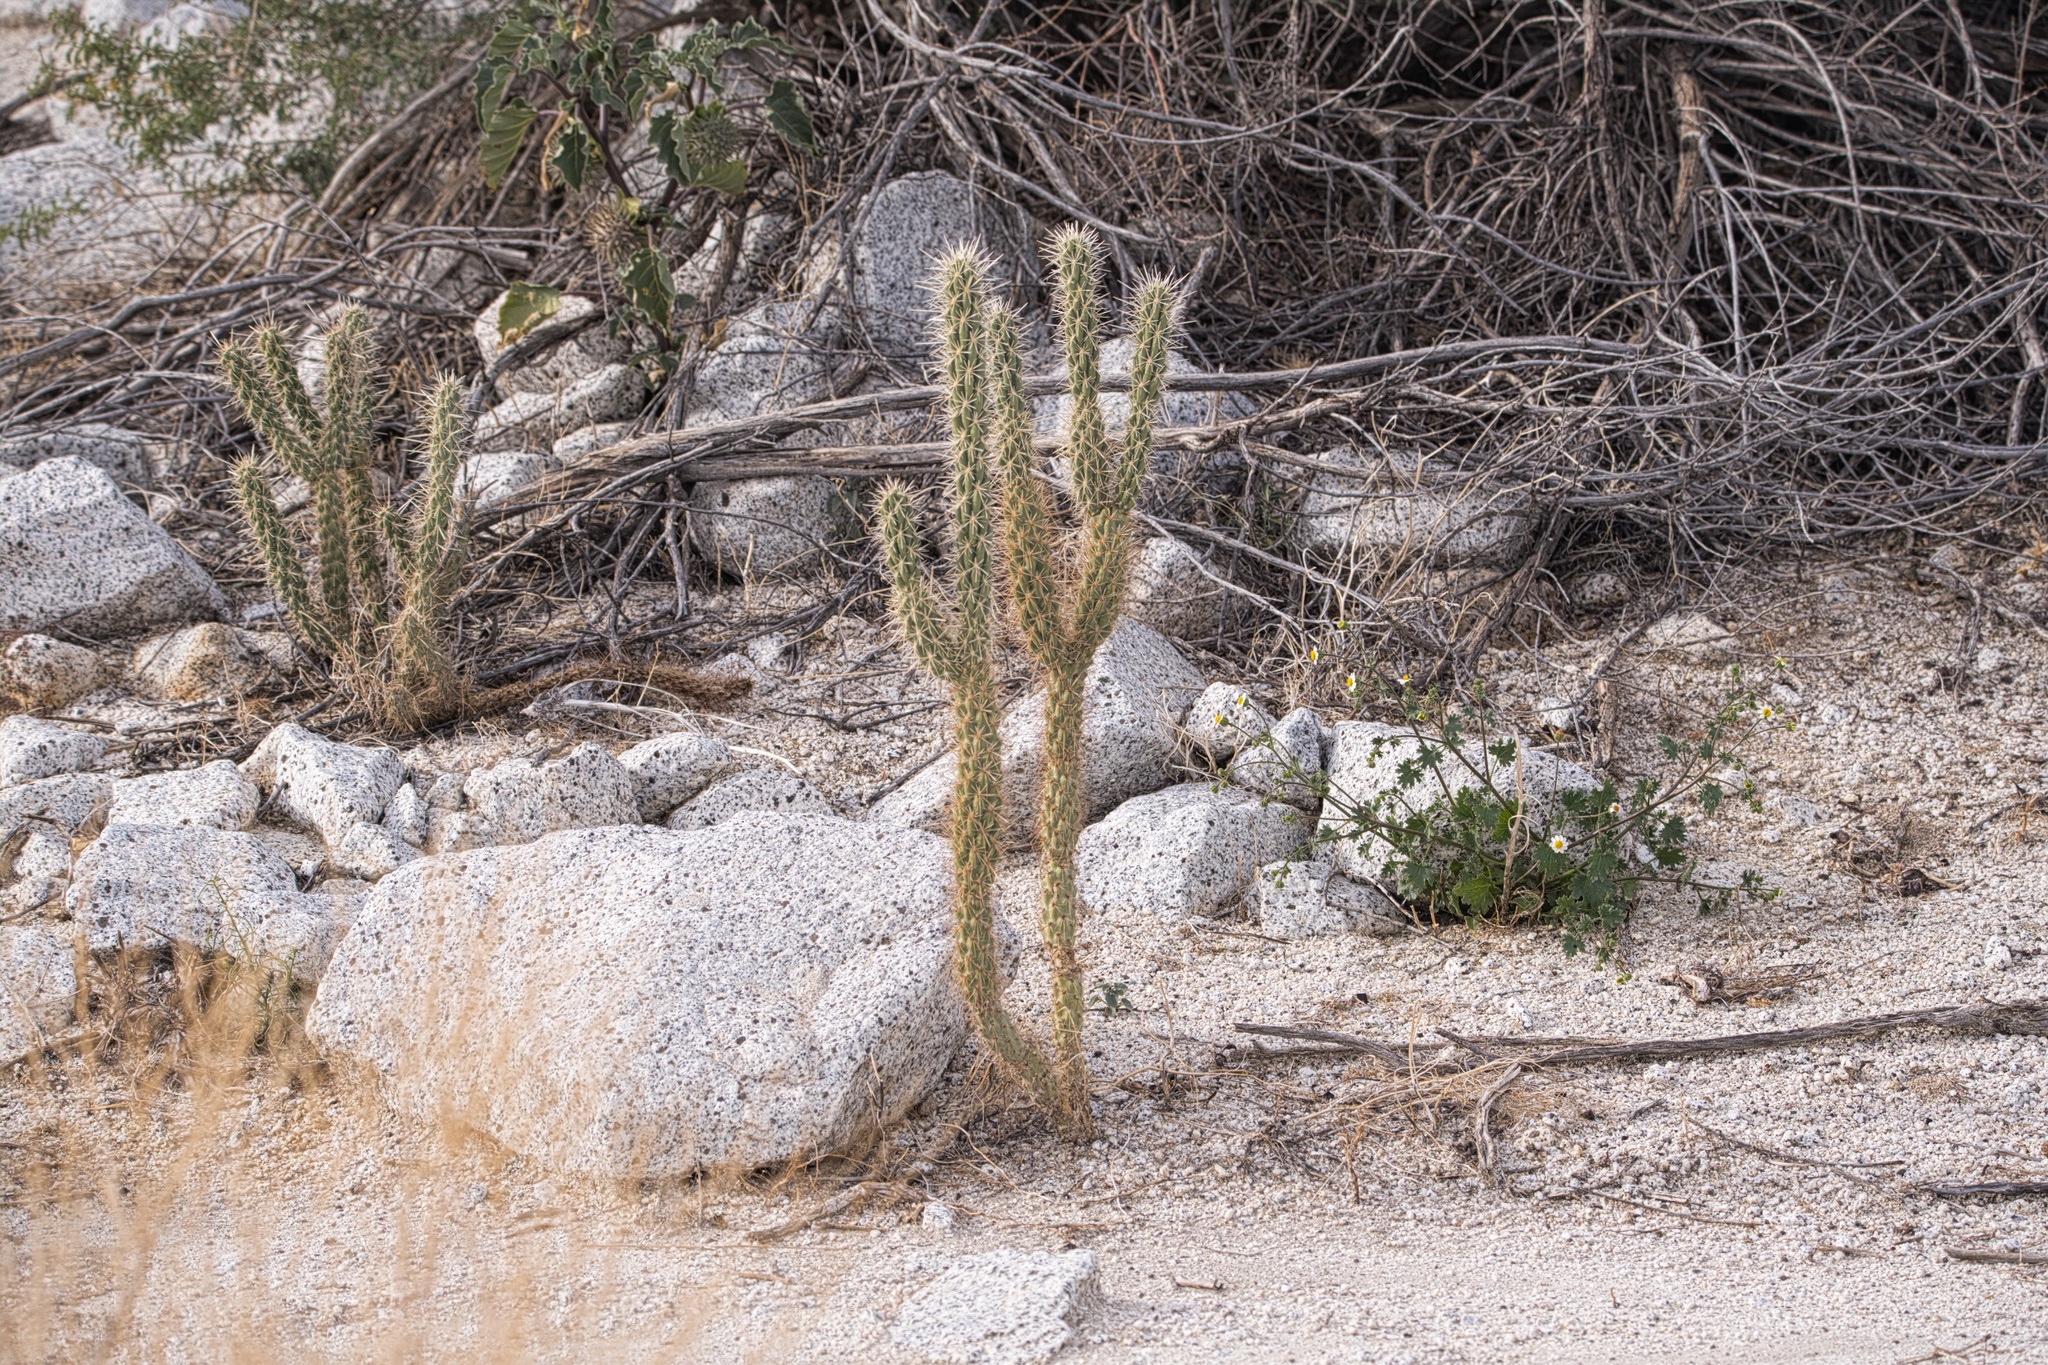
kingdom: Plantae
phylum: Tracheophyta
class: Magnoliopsida
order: Caryophyllales
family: Cactaceae
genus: Cylindropuntia
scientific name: Cylindropuntia ganderi
